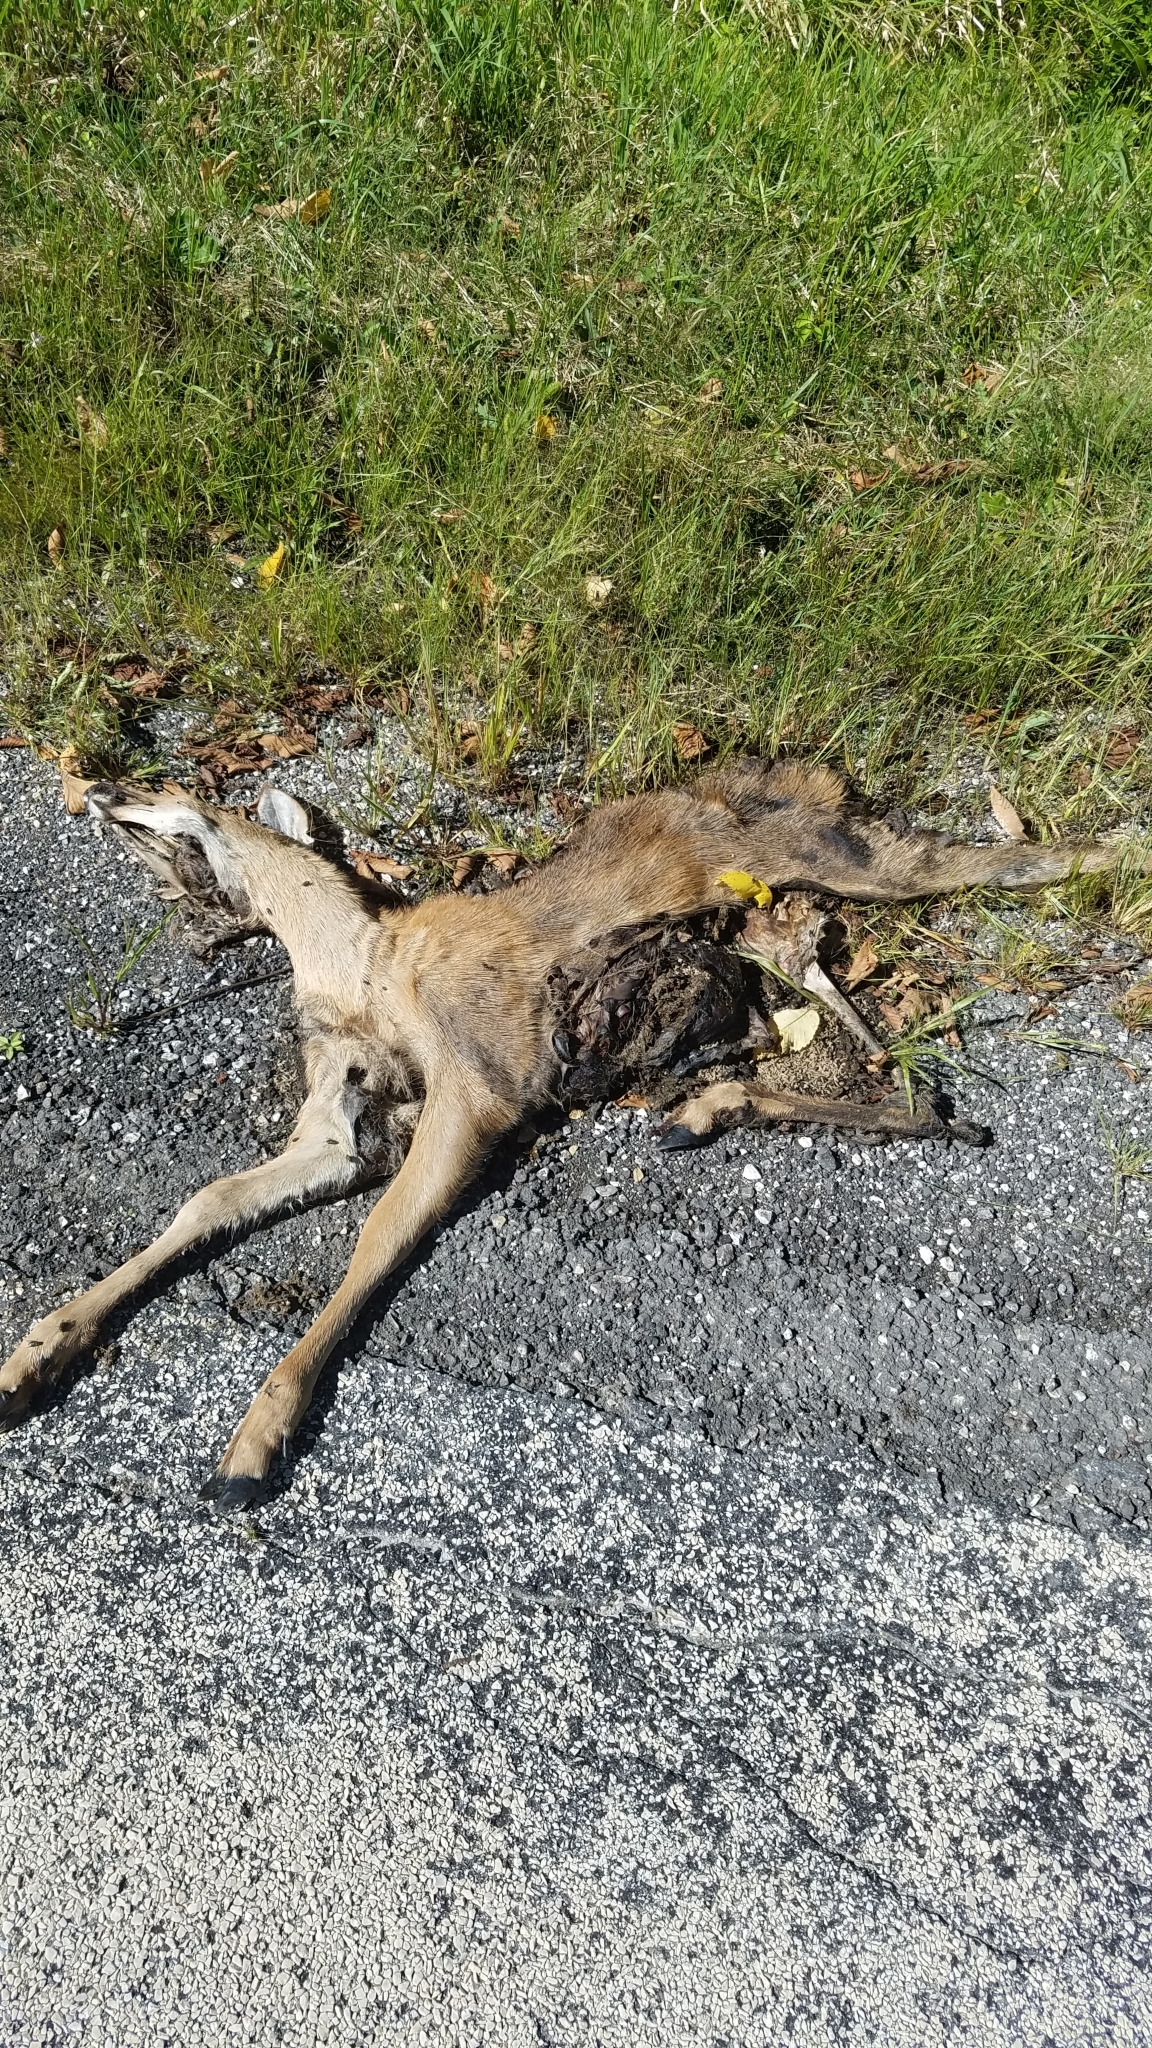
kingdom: Animalia
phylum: Chordata
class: Mammalia
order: Artiodactyla
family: Cervidae
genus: Odocoileus
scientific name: Odocoileus virginianus
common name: White-tailed deer
